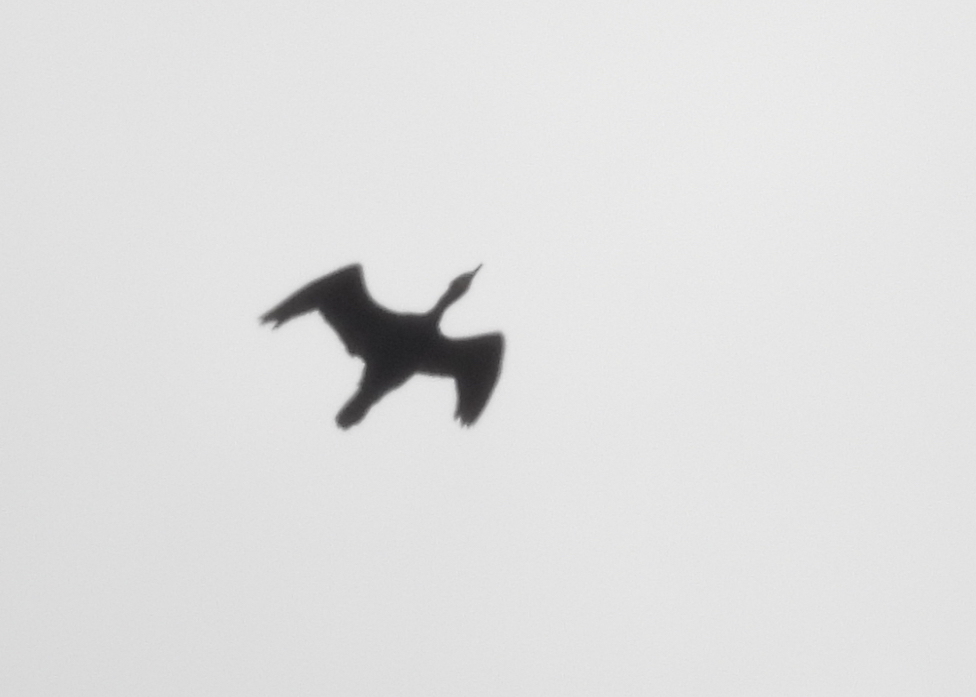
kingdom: Animalia
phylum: Chordata
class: Aves
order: Suliformes
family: Phalacrocoracidae
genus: Phalacrocorax
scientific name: Phalacrocorax auritus
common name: Double-crested cormorant
